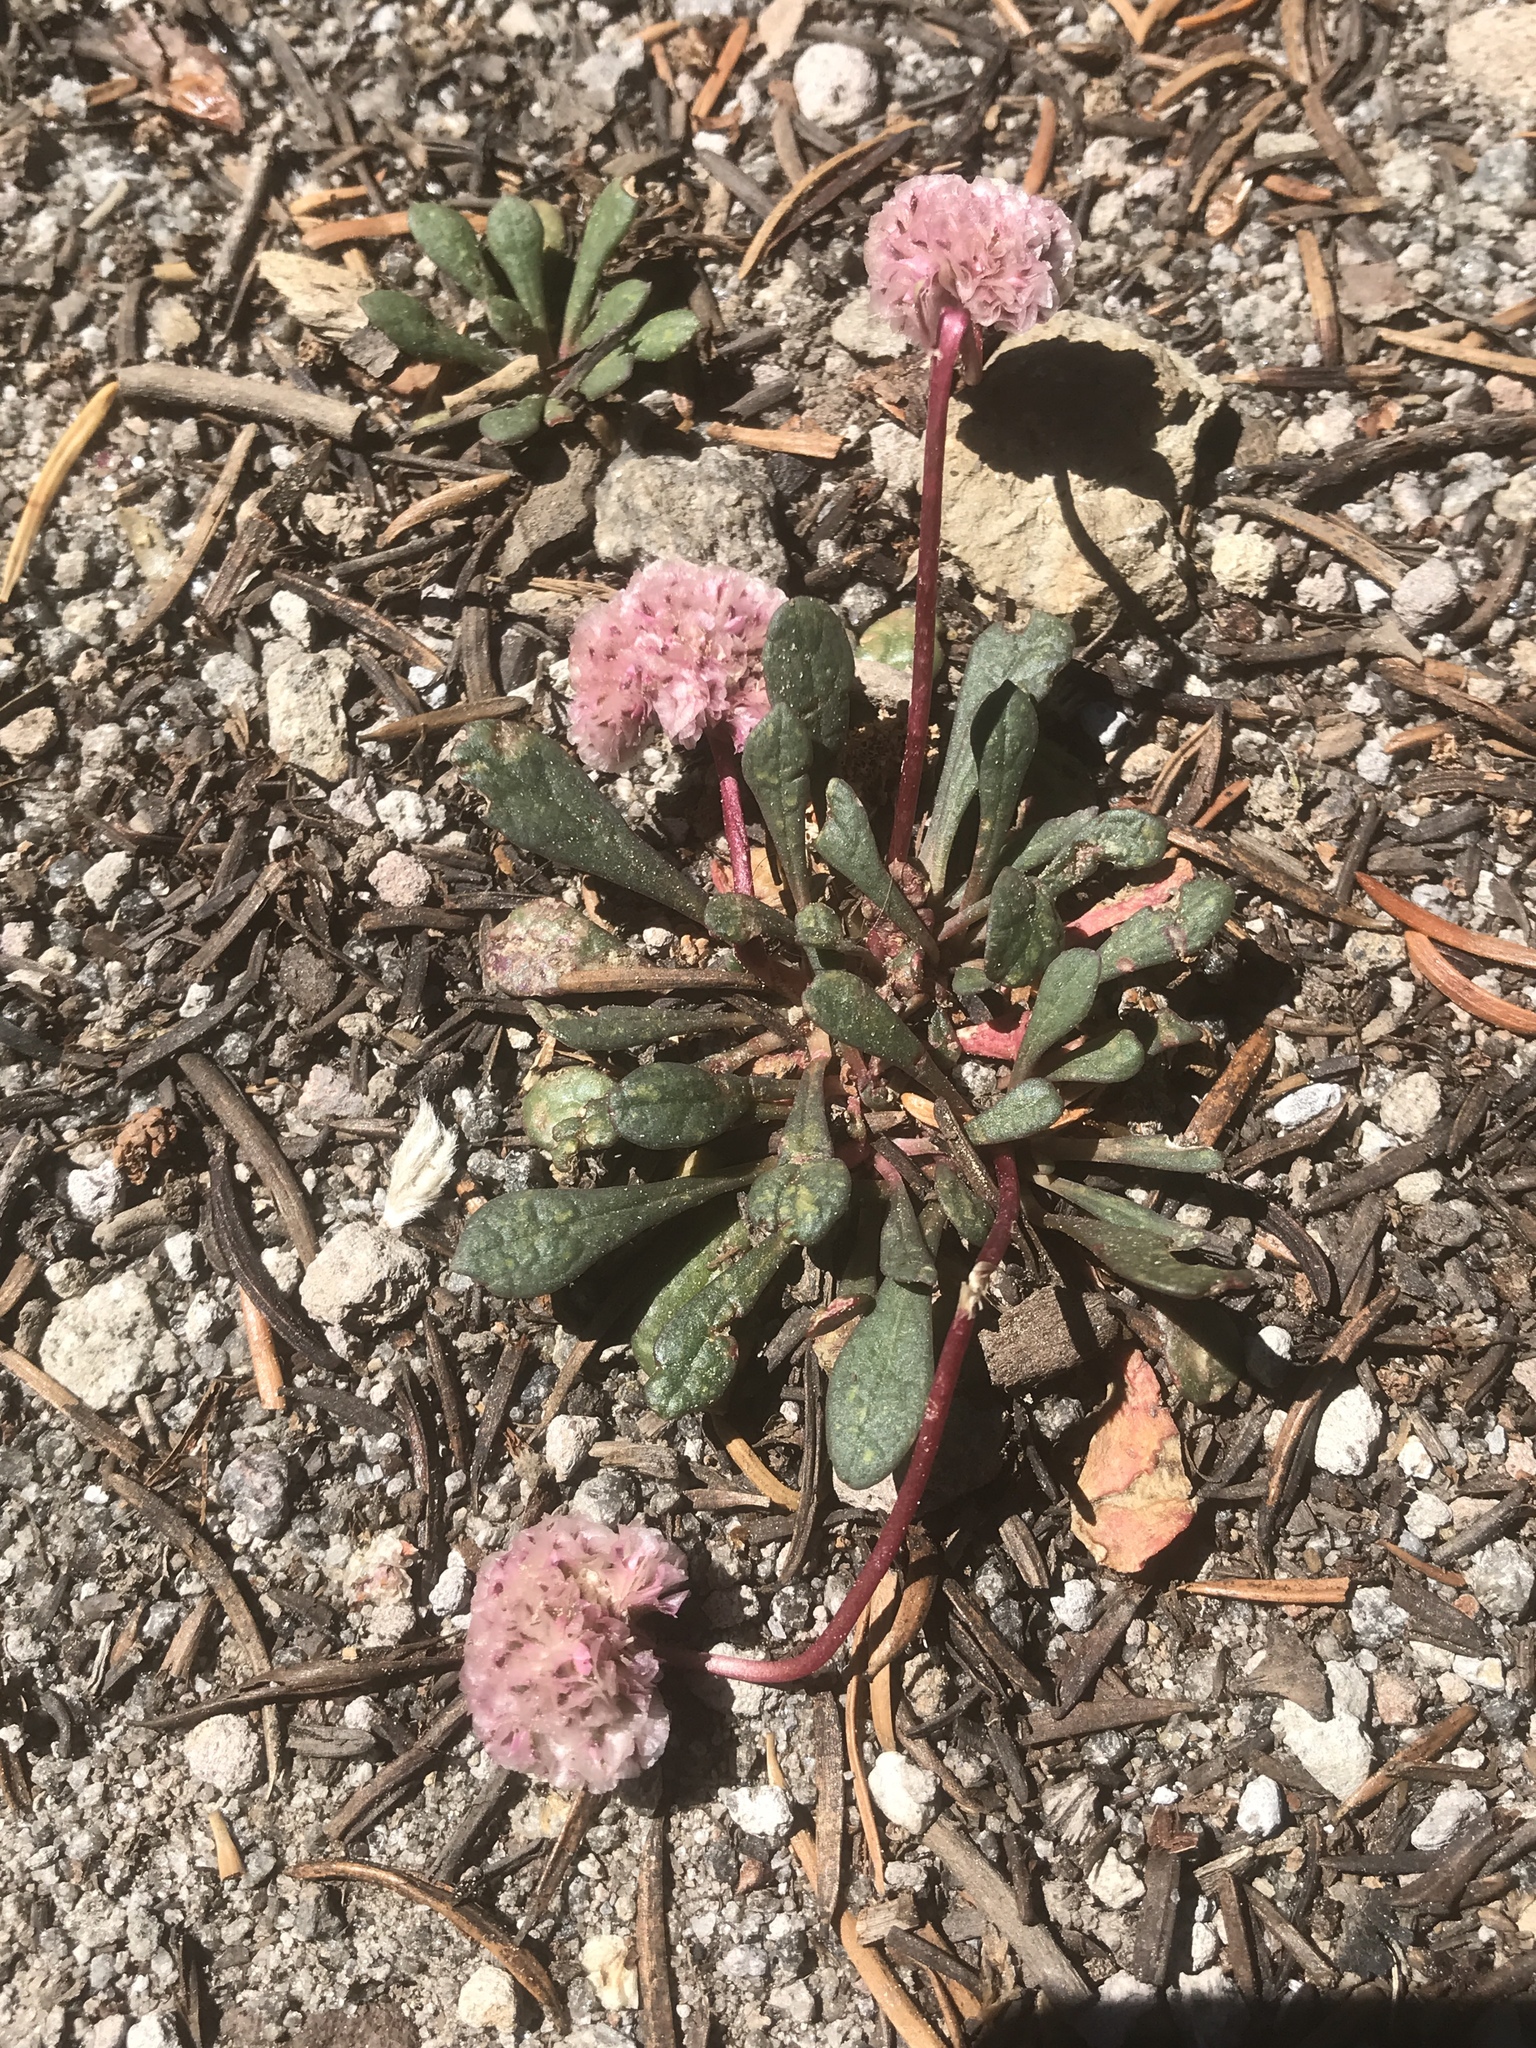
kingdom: Plantae
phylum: Tracheophyta
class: Magnoliopsida
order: Caryophyllales
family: Montiaceae
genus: Calyptridium
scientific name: Calyptridium umbellatum
